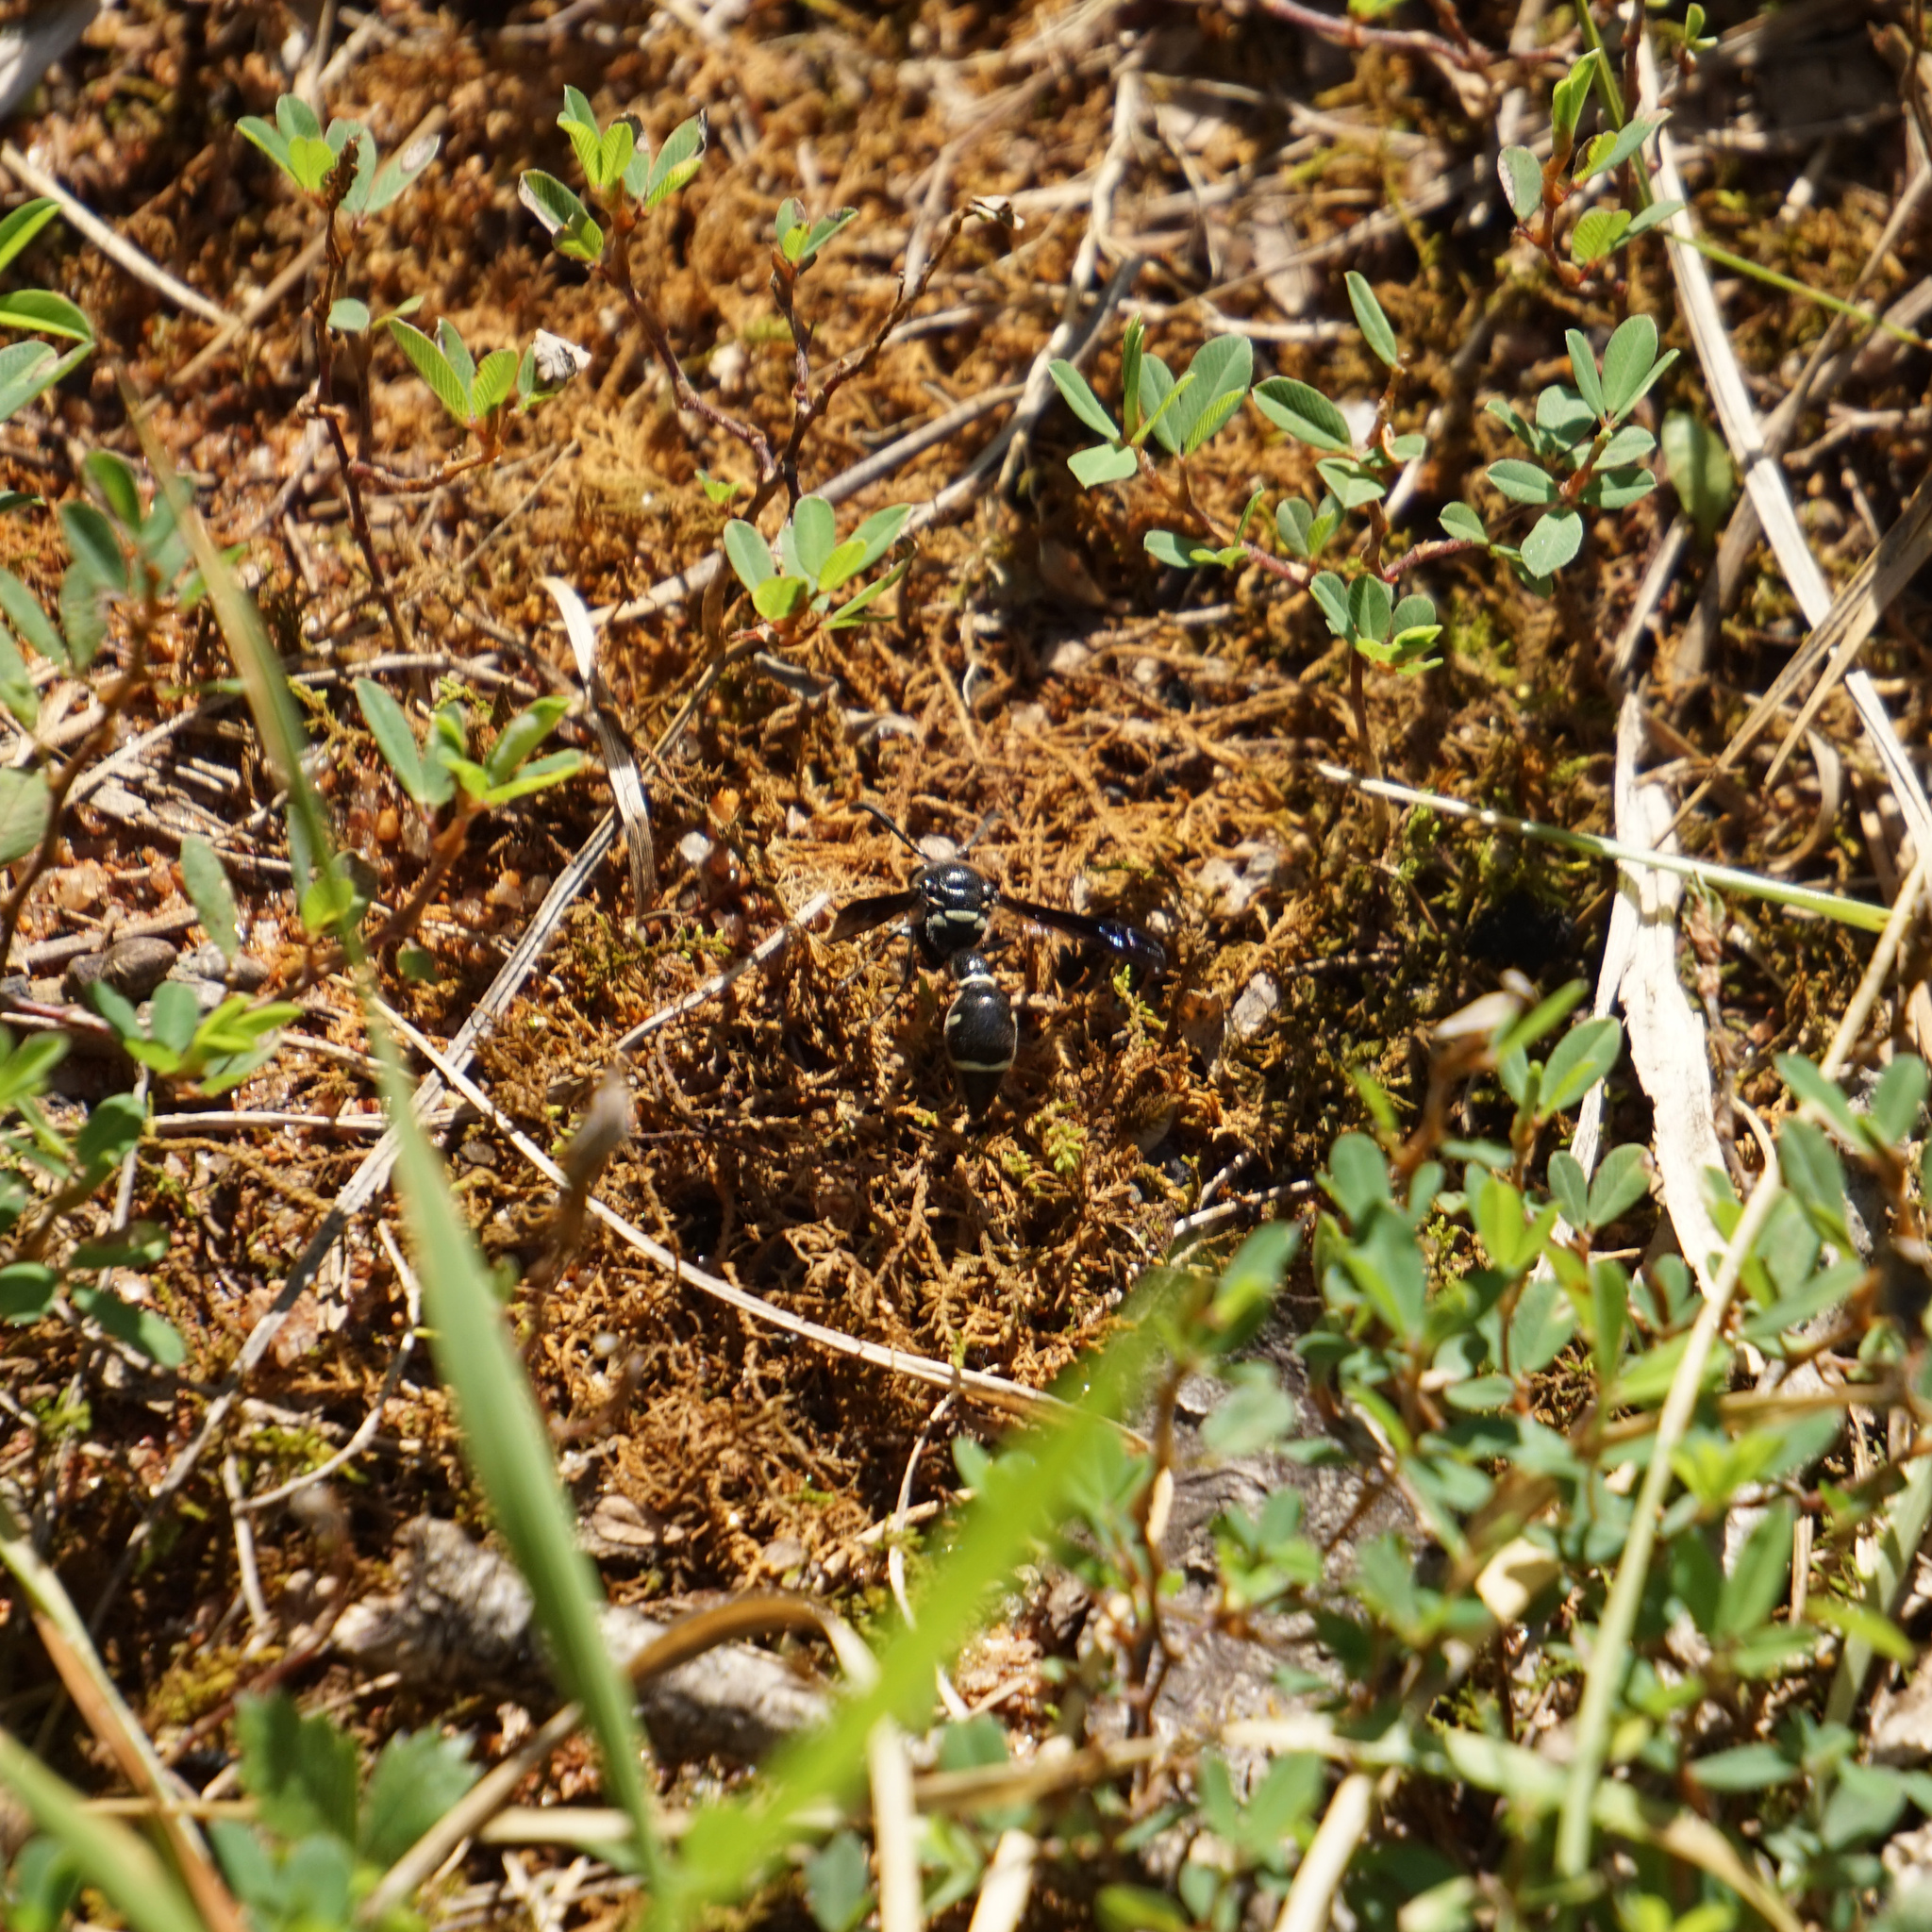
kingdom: Animalia
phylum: Arthropoda
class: Insecta
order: Hymenoptera
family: Vespidae
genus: Eumenes
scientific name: Eumenes fraternus
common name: Fraternal potter wasp
